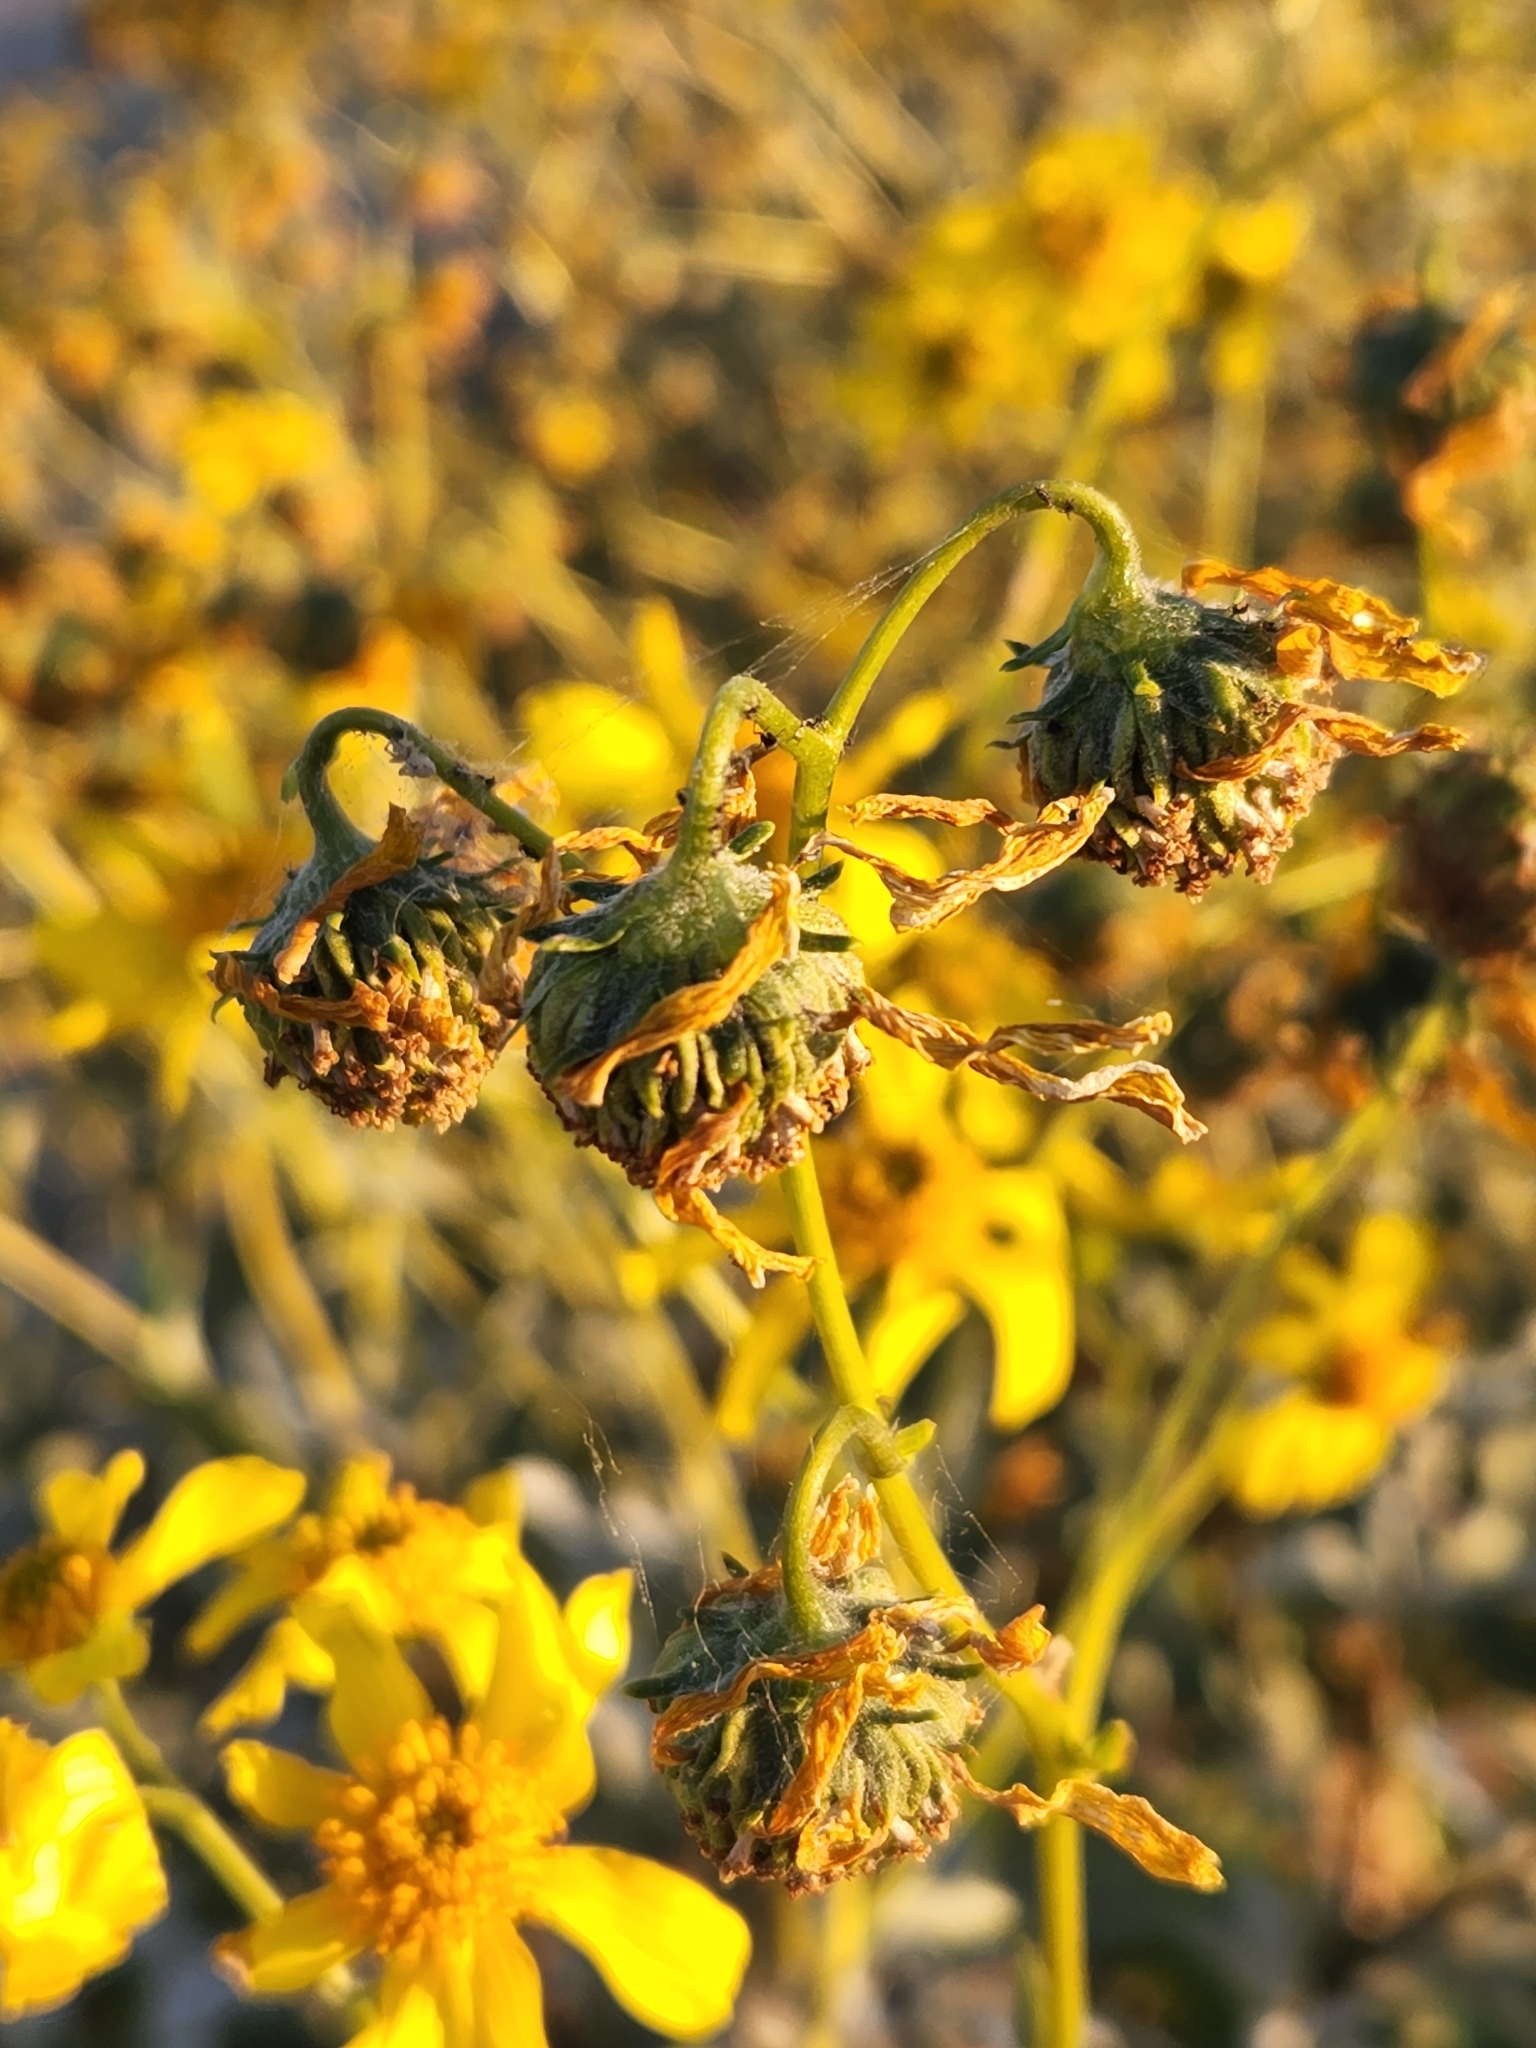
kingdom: Plantae
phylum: Tracheophyta
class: Magnoliopsida
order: Asterales
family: Asteraceae
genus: Encelia
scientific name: Encelia farinosa
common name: Brittlebush
